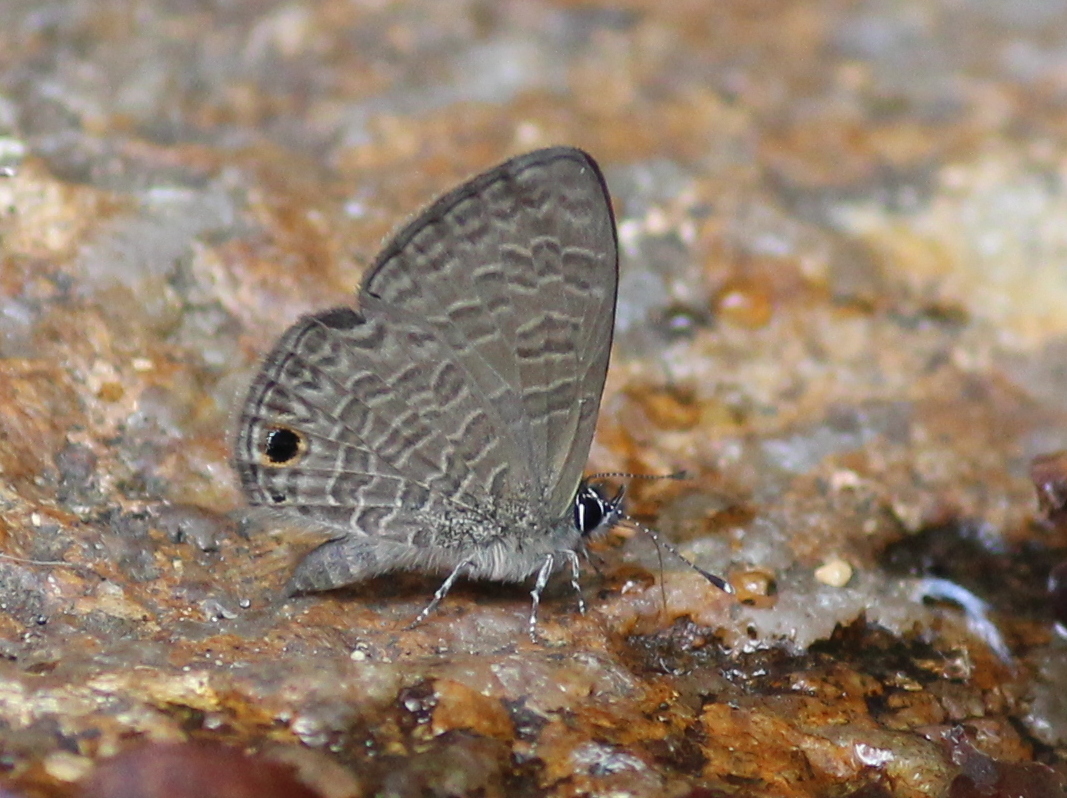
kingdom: Animalia
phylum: Arthropoda
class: Insecta
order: Lepidoptera
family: Lycaenidae
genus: Prosotas
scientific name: Prosotas dubiosa
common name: Tailless lineblue
